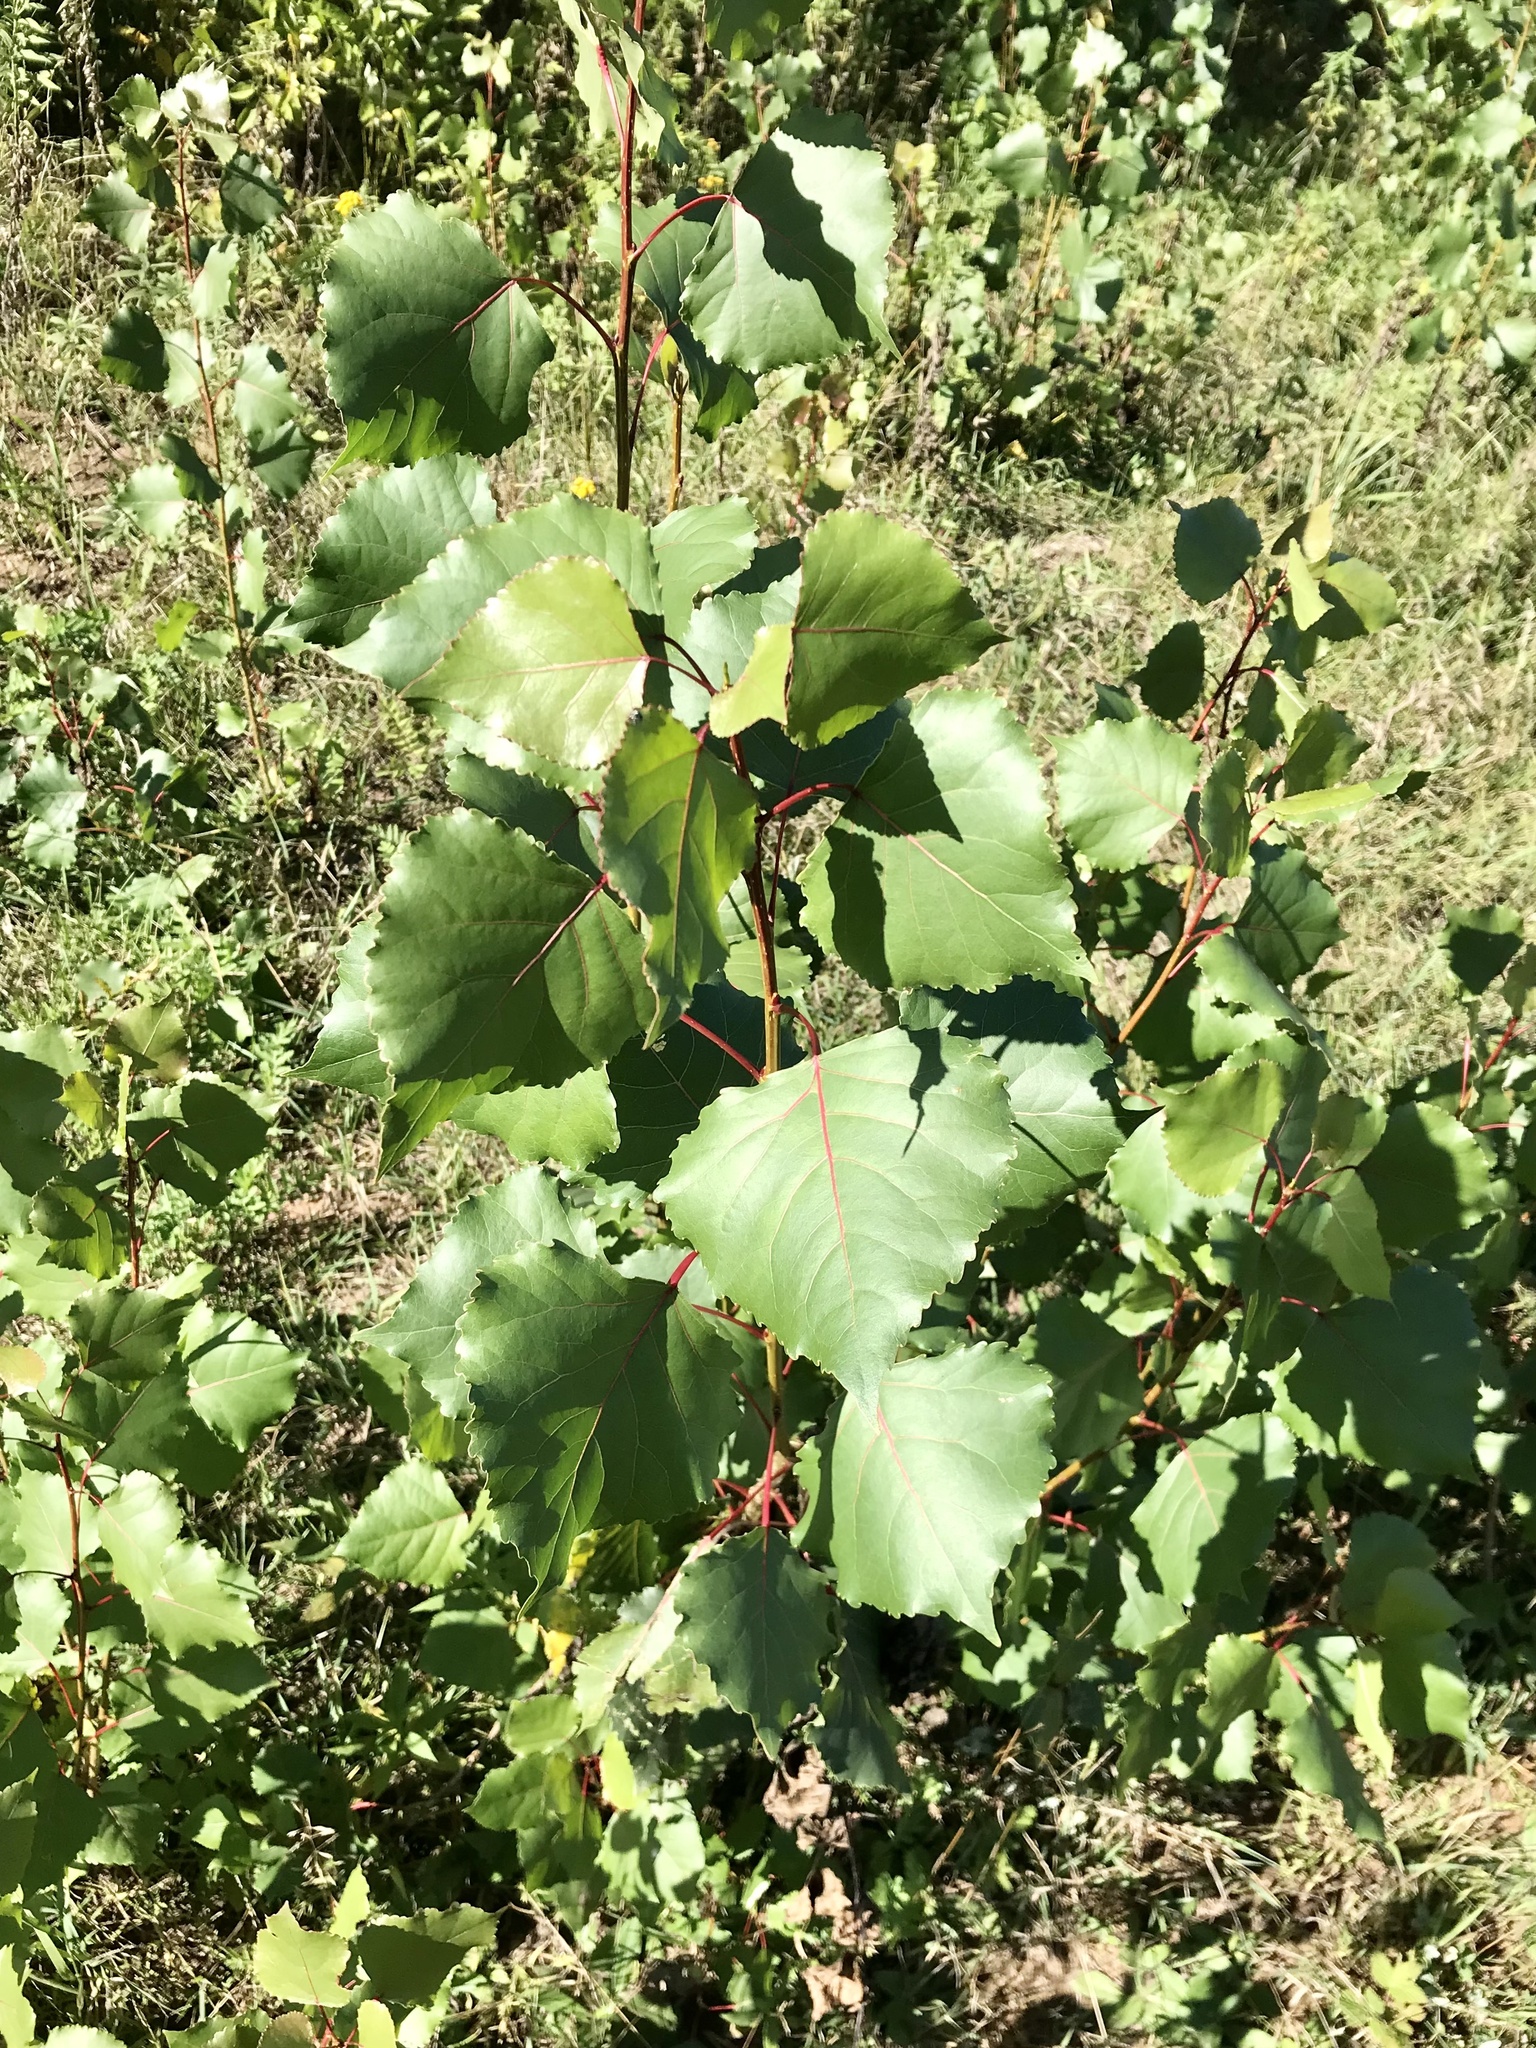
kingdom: Plantae
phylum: Tracheophyta
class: Magnoliopsida
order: Malpighiales
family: Salicaceae
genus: Populus
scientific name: Populus deltoides
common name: Eastern cottonwood
